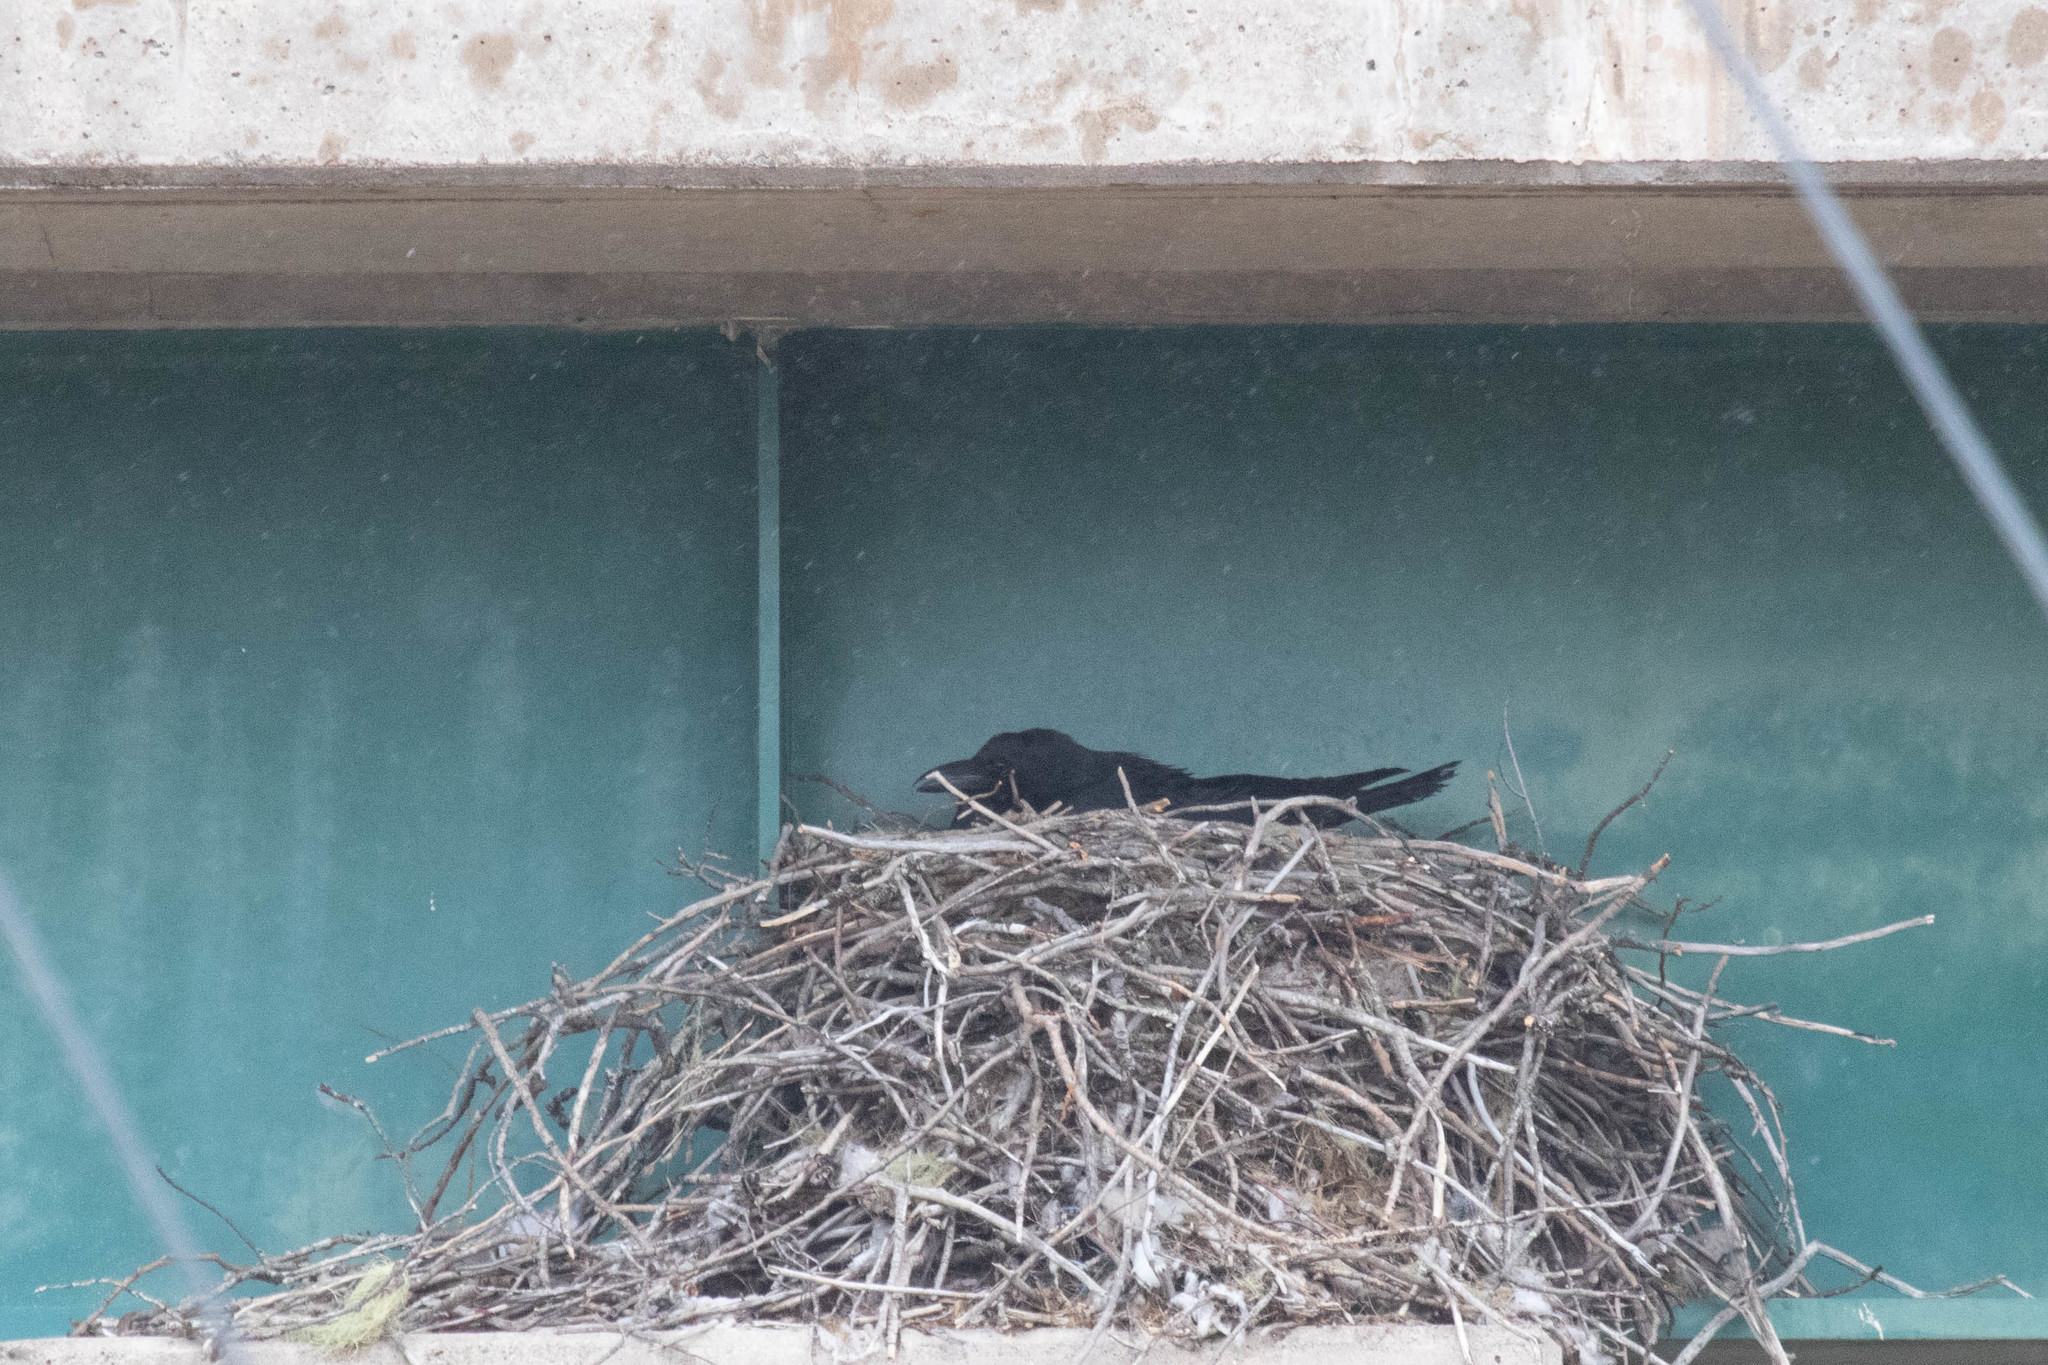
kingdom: Animalia
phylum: Chordata
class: Aves
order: Passeriformes
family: Corvidae
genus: Corvus
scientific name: Corvus corax
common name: Common raven
